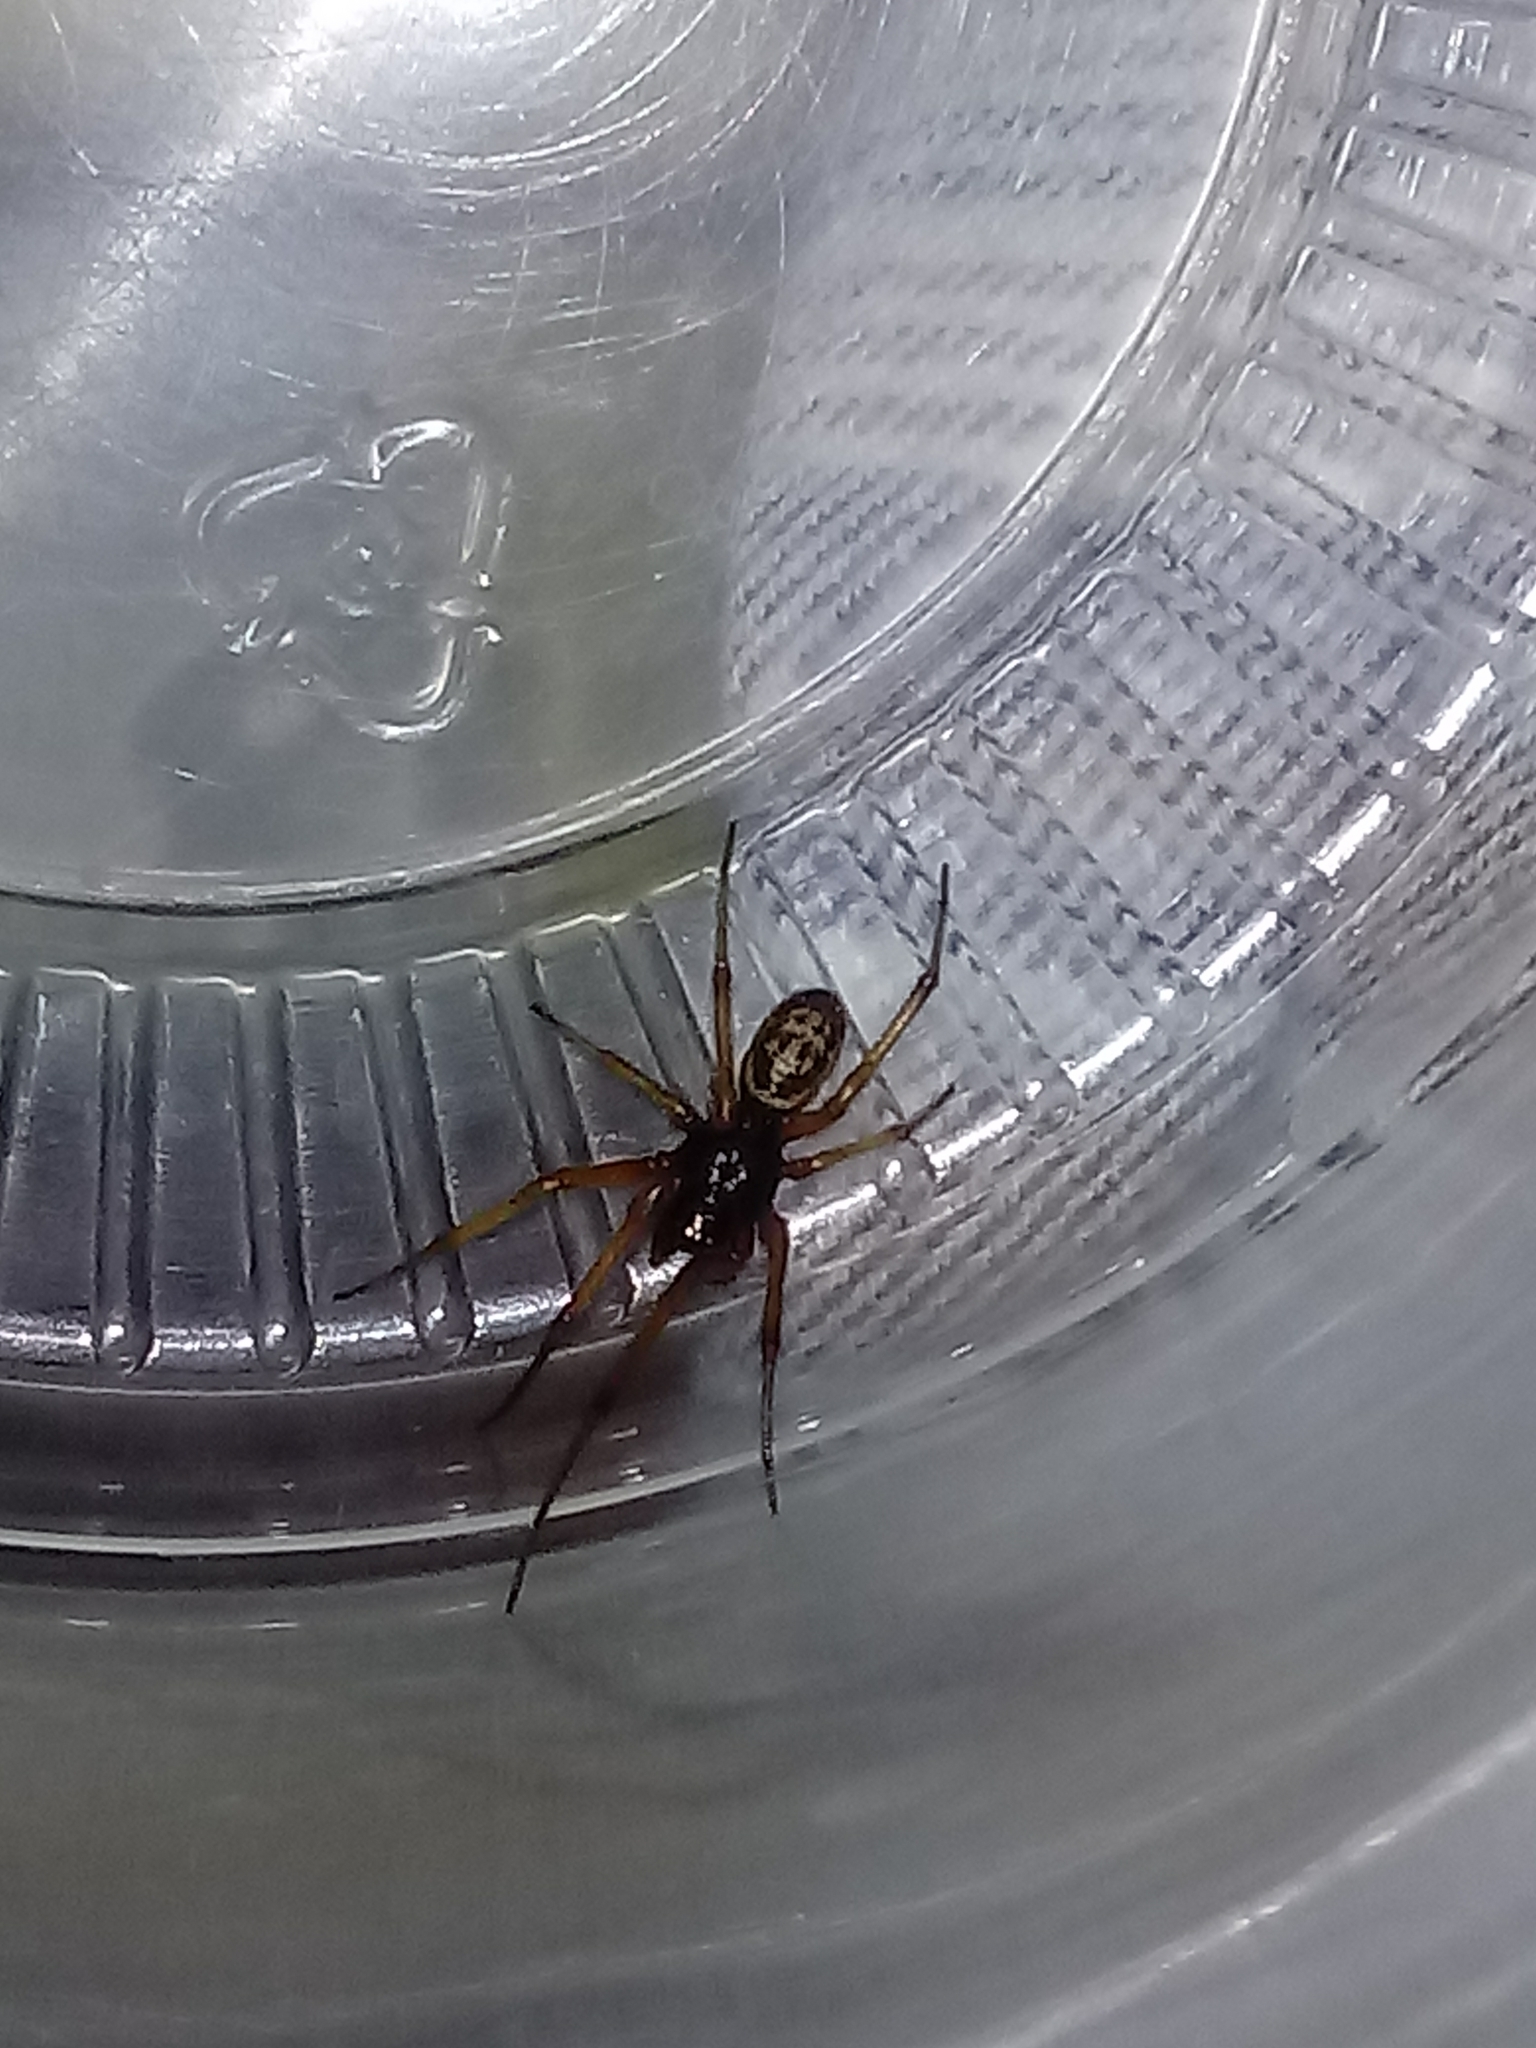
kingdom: Animalia
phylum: Arthropoda
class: Arachnida
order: Araneae
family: Theridiidae
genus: Steatoda
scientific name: Steatoda nobilis
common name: Cobweb weaver
